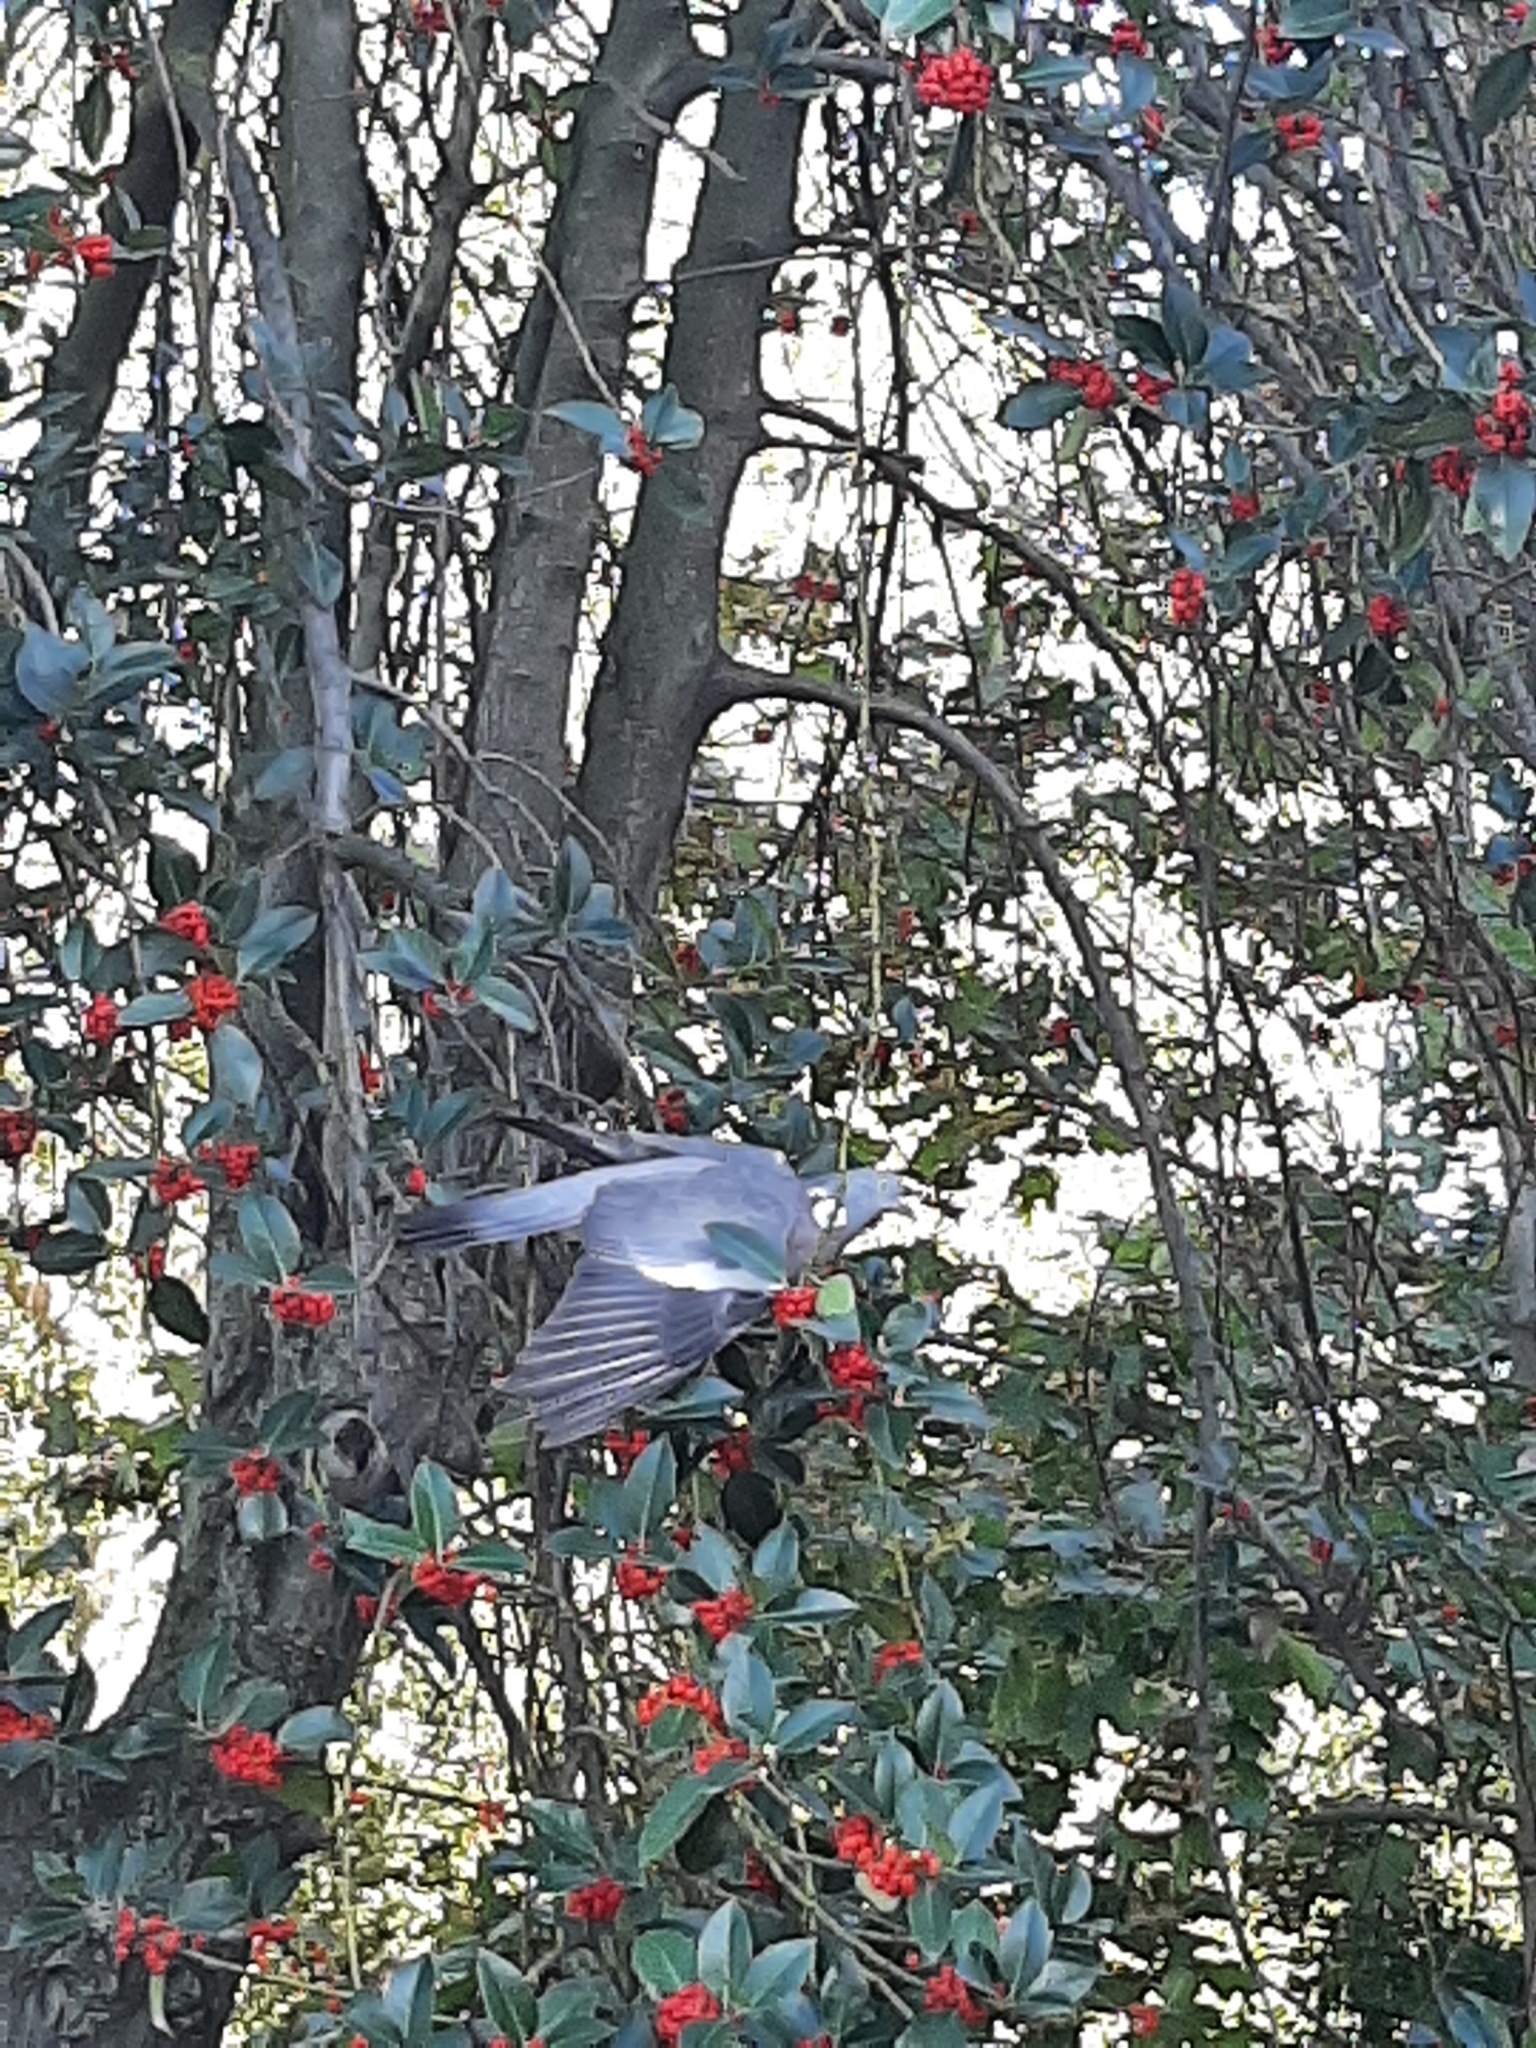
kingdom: Animalia
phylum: Chordata
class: Aves
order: Columbiformes
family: Columbidae
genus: Columba
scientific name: Columba palumbus
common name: Common wood pigeon
